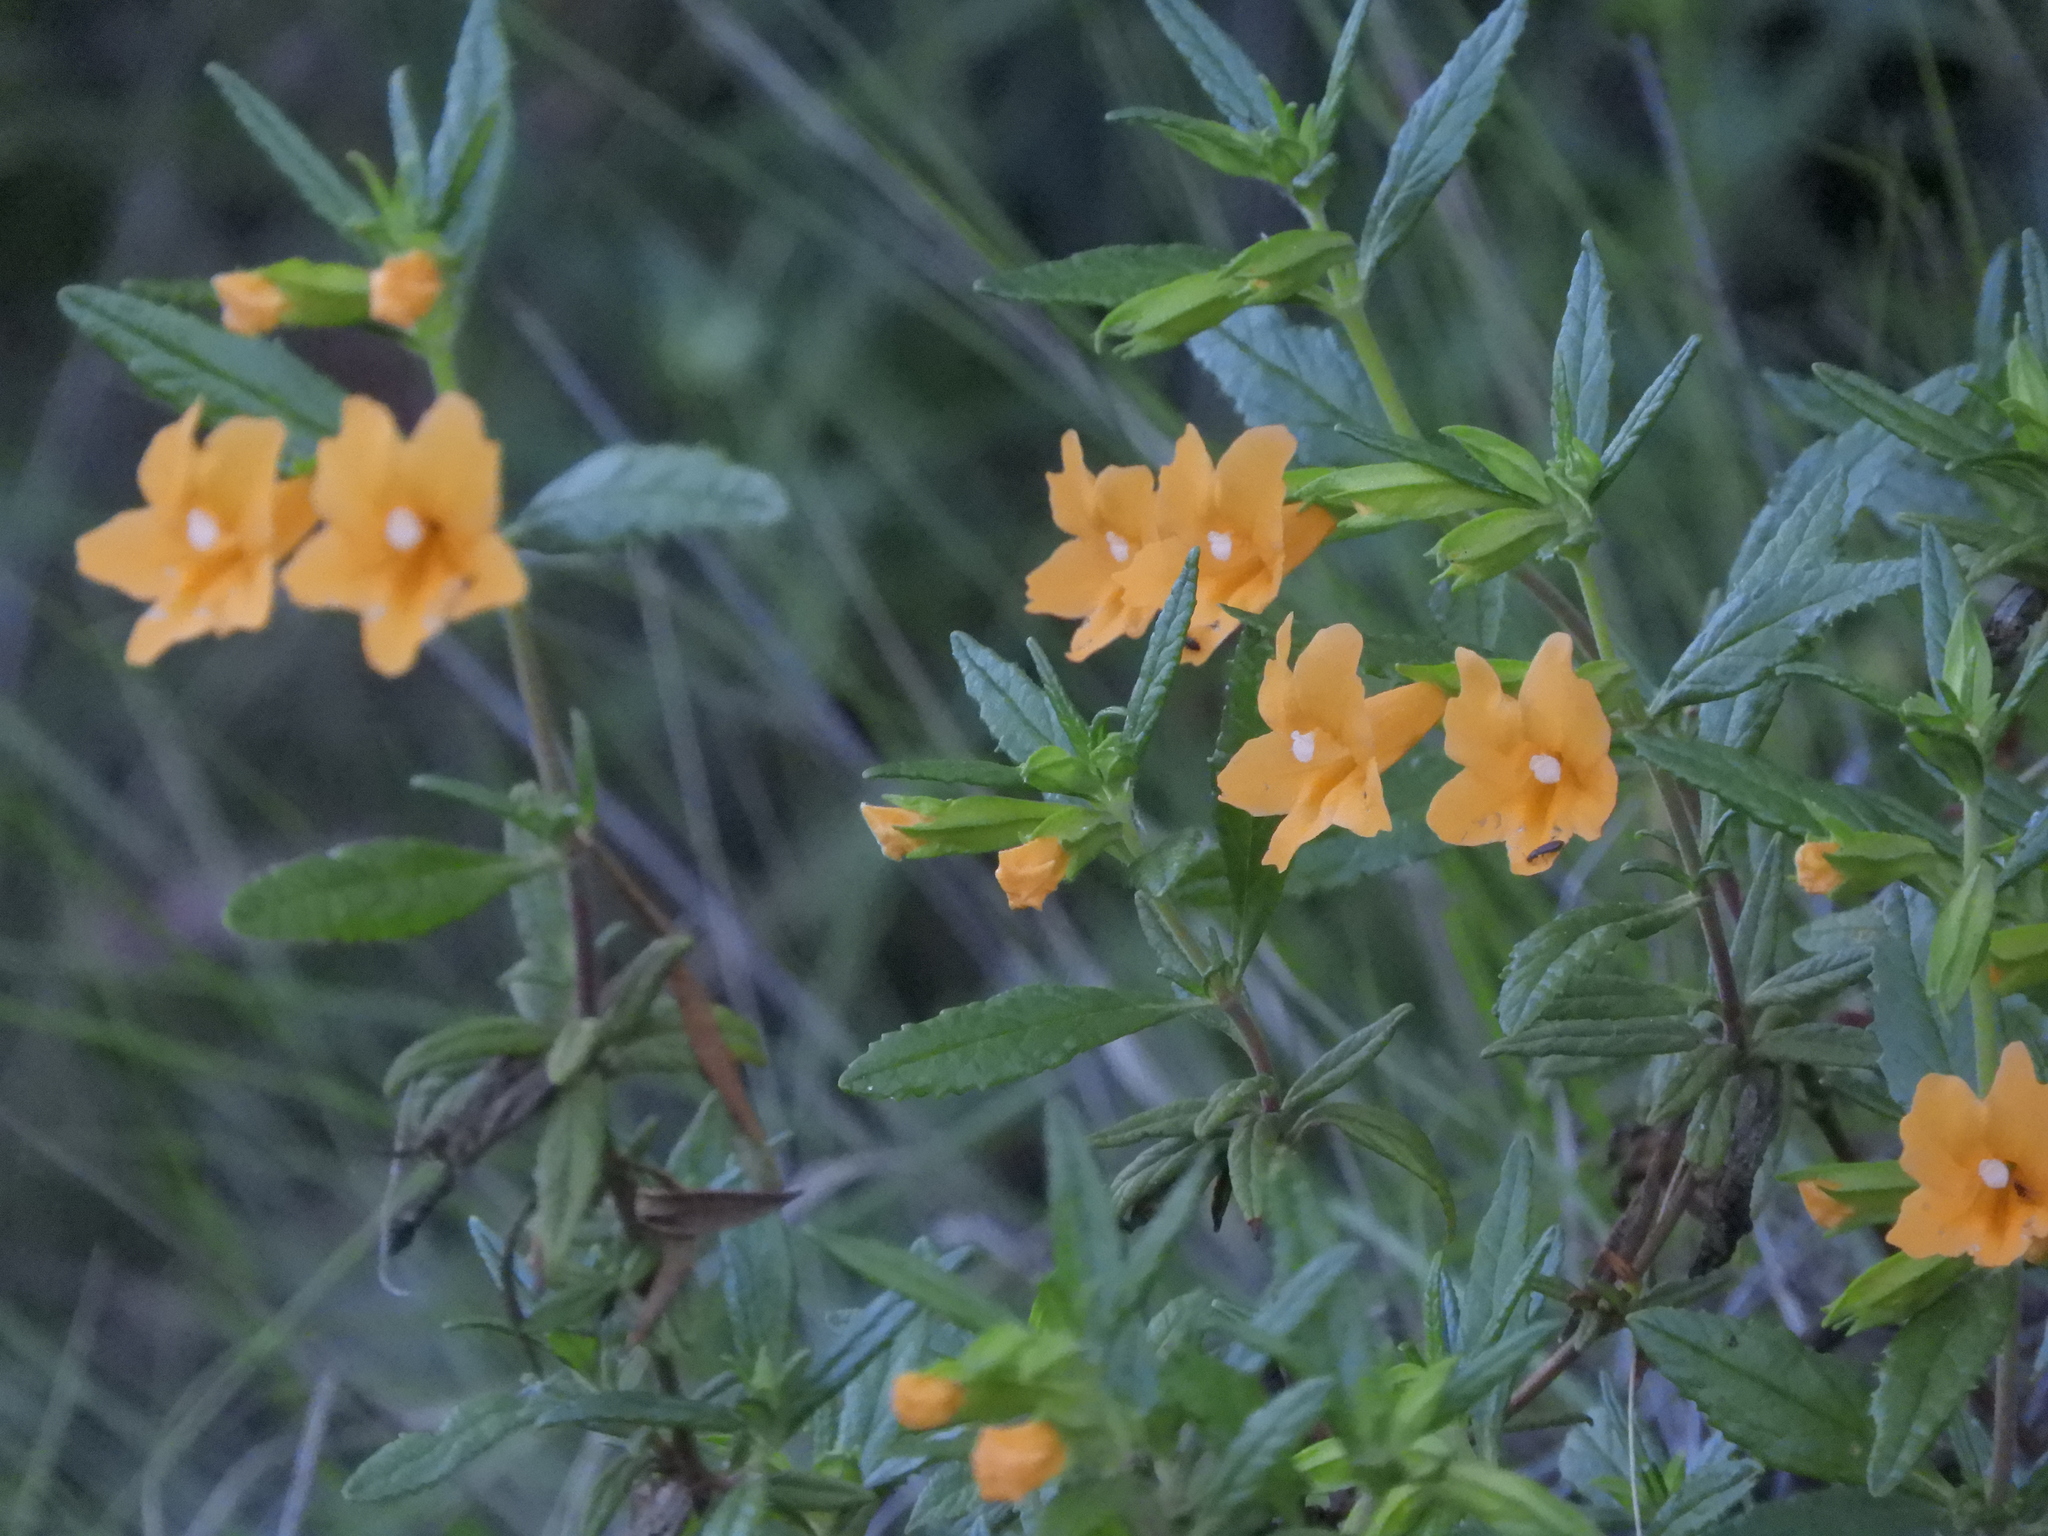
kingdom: Plantae
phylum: Tracheophyta
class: Magnoliopsida
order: Lamiales
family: Phrymaceae
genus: Diplacus
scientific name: Diplacus aurantiacus
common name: Bush monkey-flower
